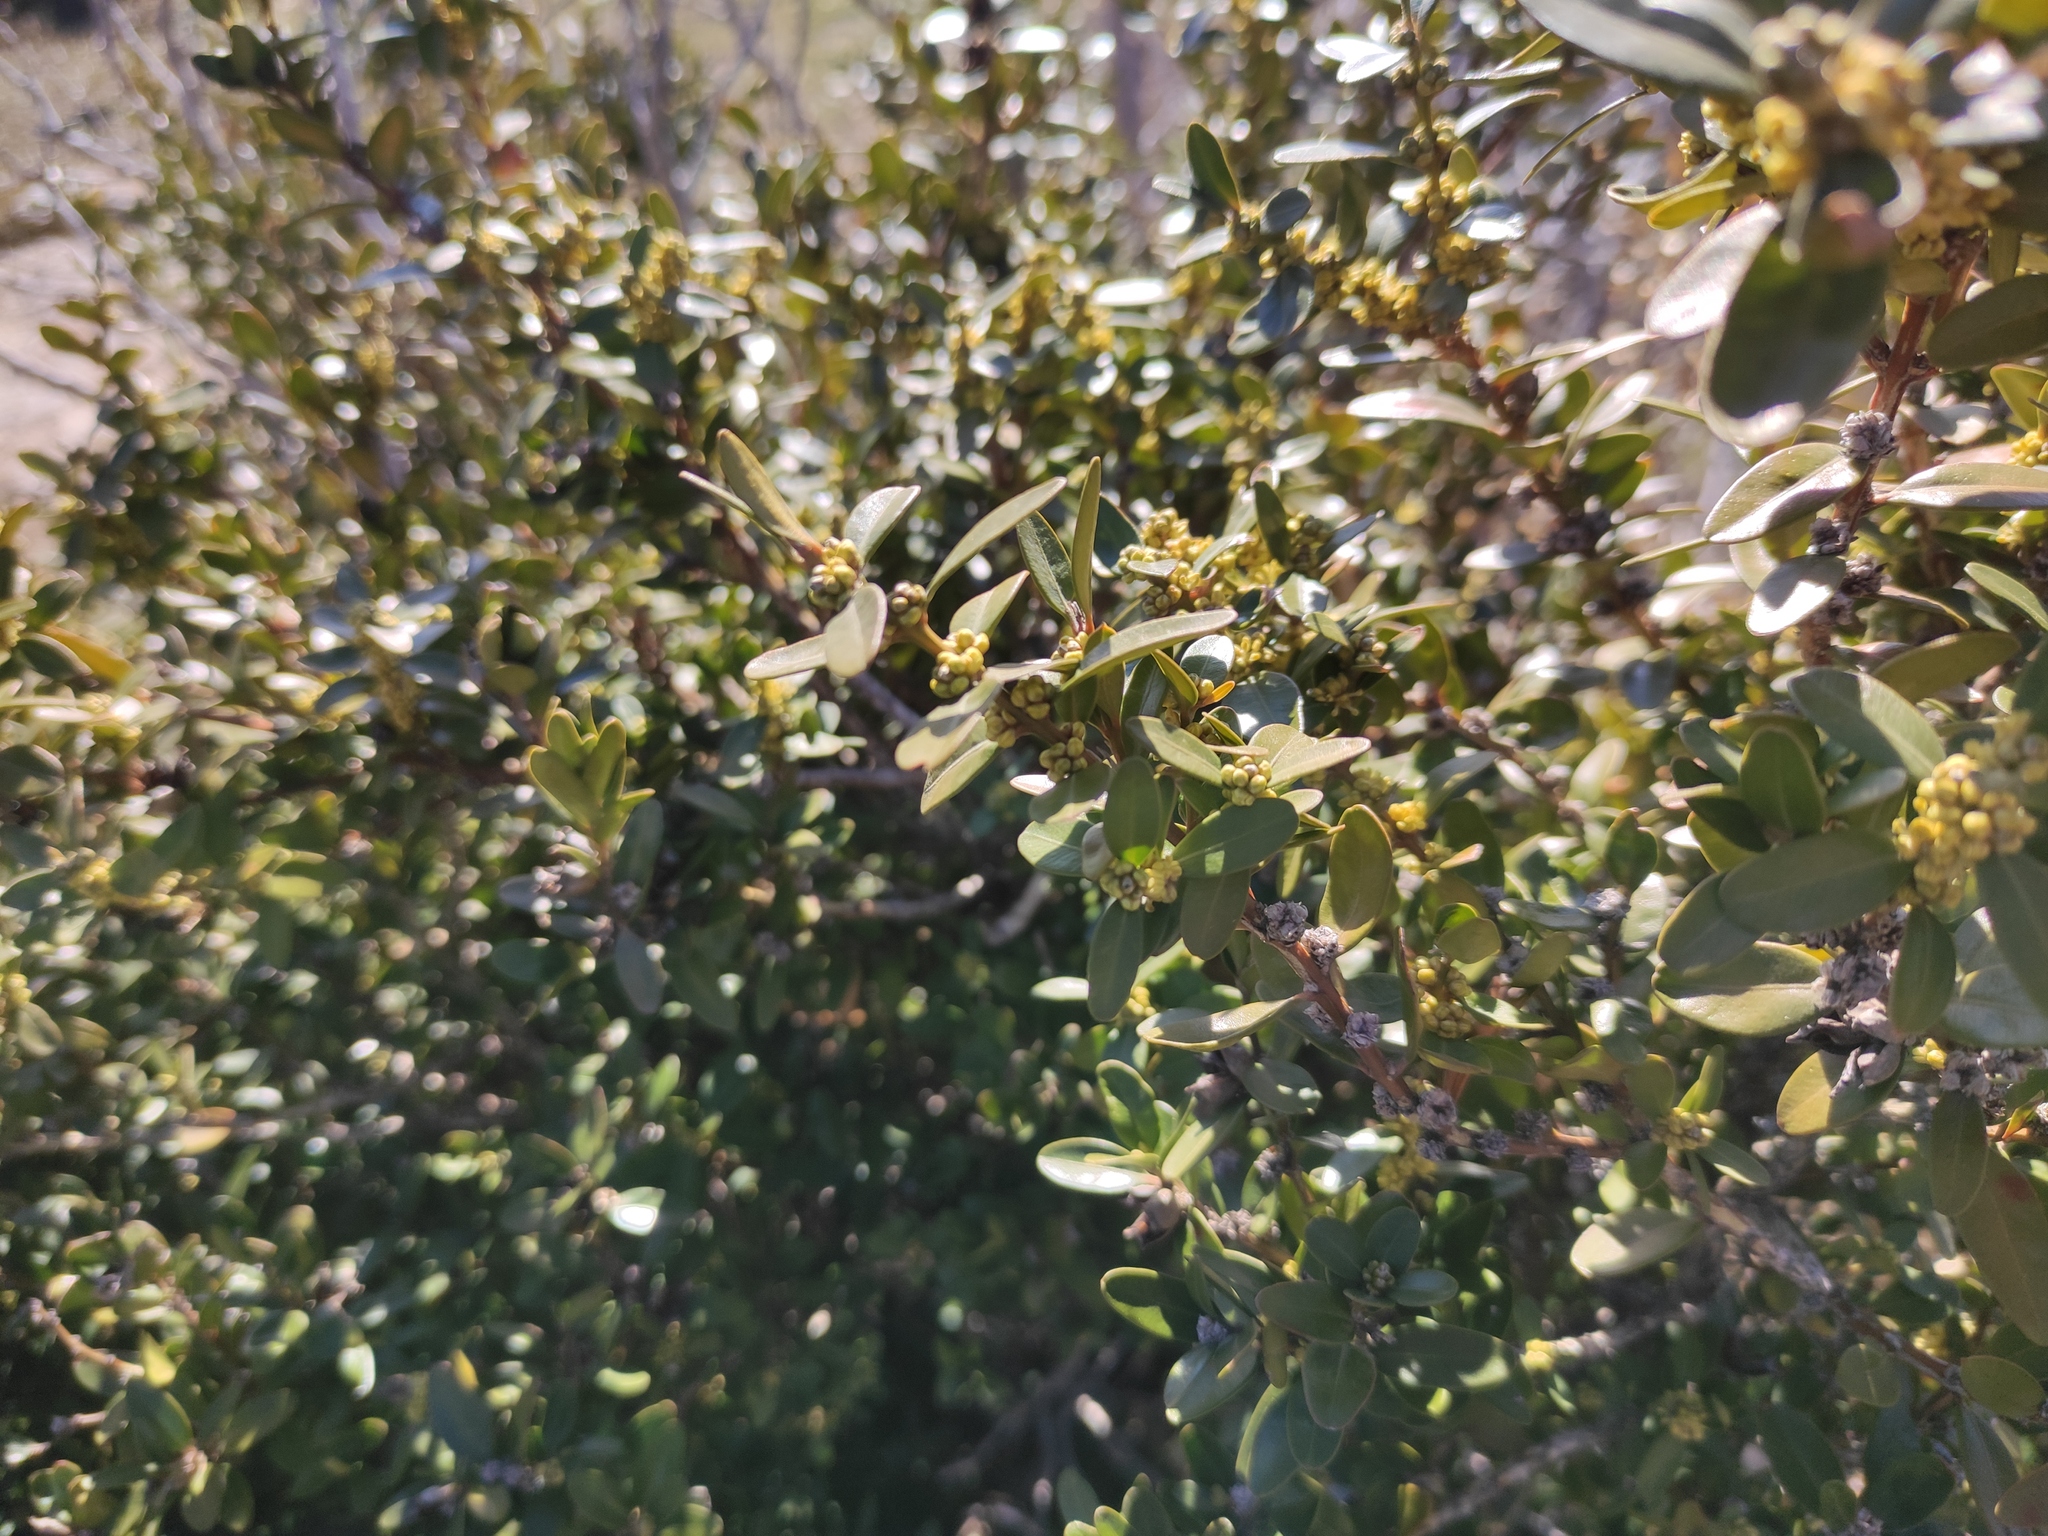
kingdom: Plantae
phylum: Tracheophyta
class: Magnoliopsida
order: Buxales
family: Buxaceae
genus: Buxus
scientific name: Buxus sempervirens
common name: Box
